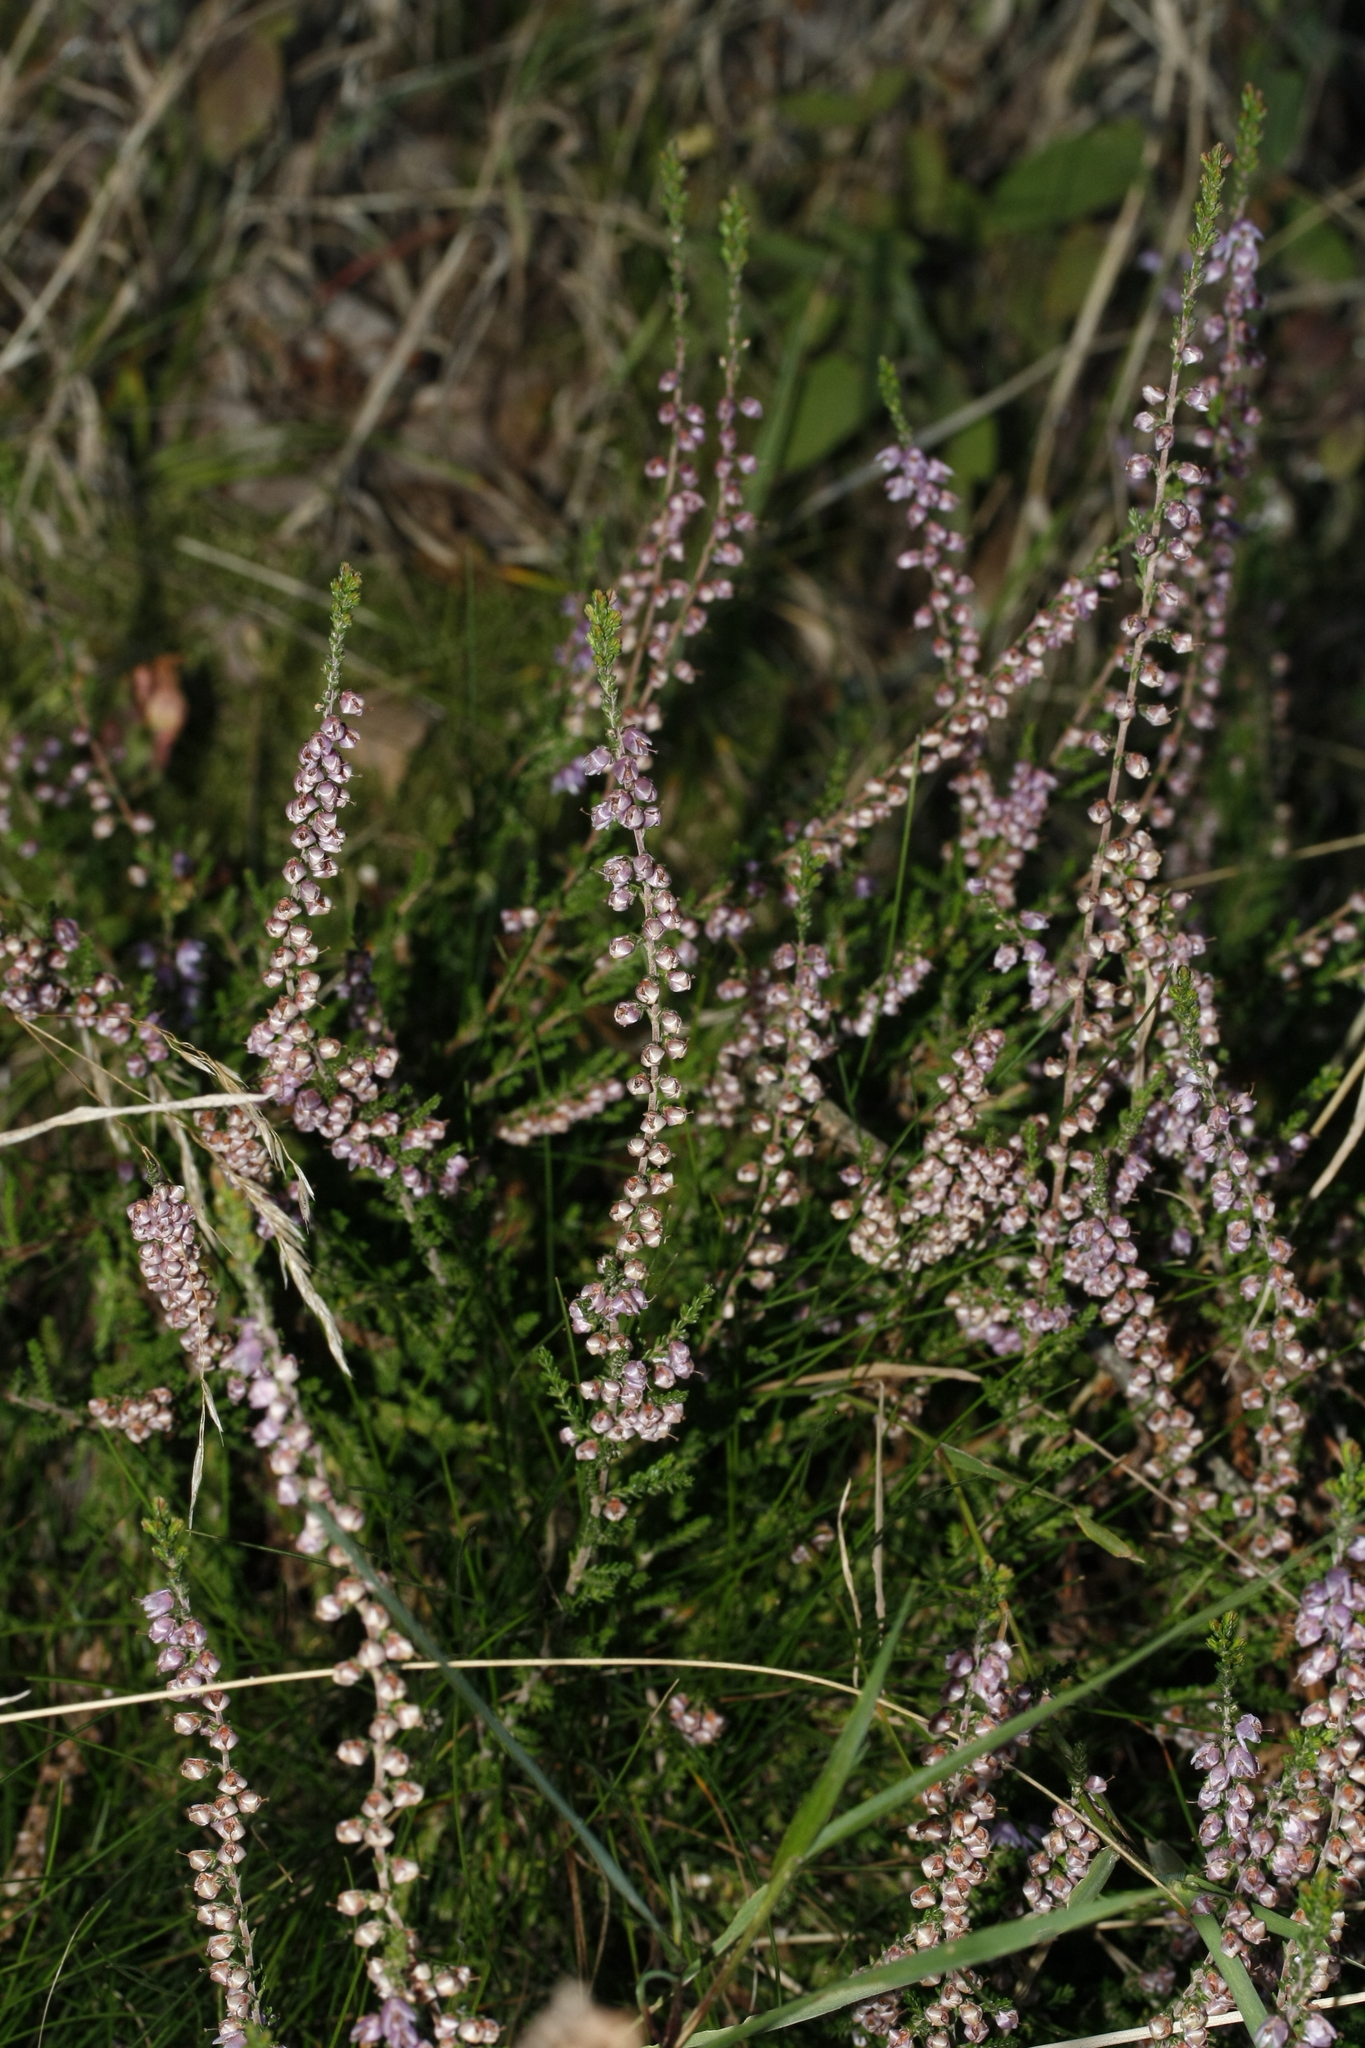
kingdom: Plantae
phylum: Tracheophyta
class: Magnoliopsida
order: Ericales
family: Ericaceae
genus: Calluna
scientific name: Calluna vulgaris
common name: Heather
